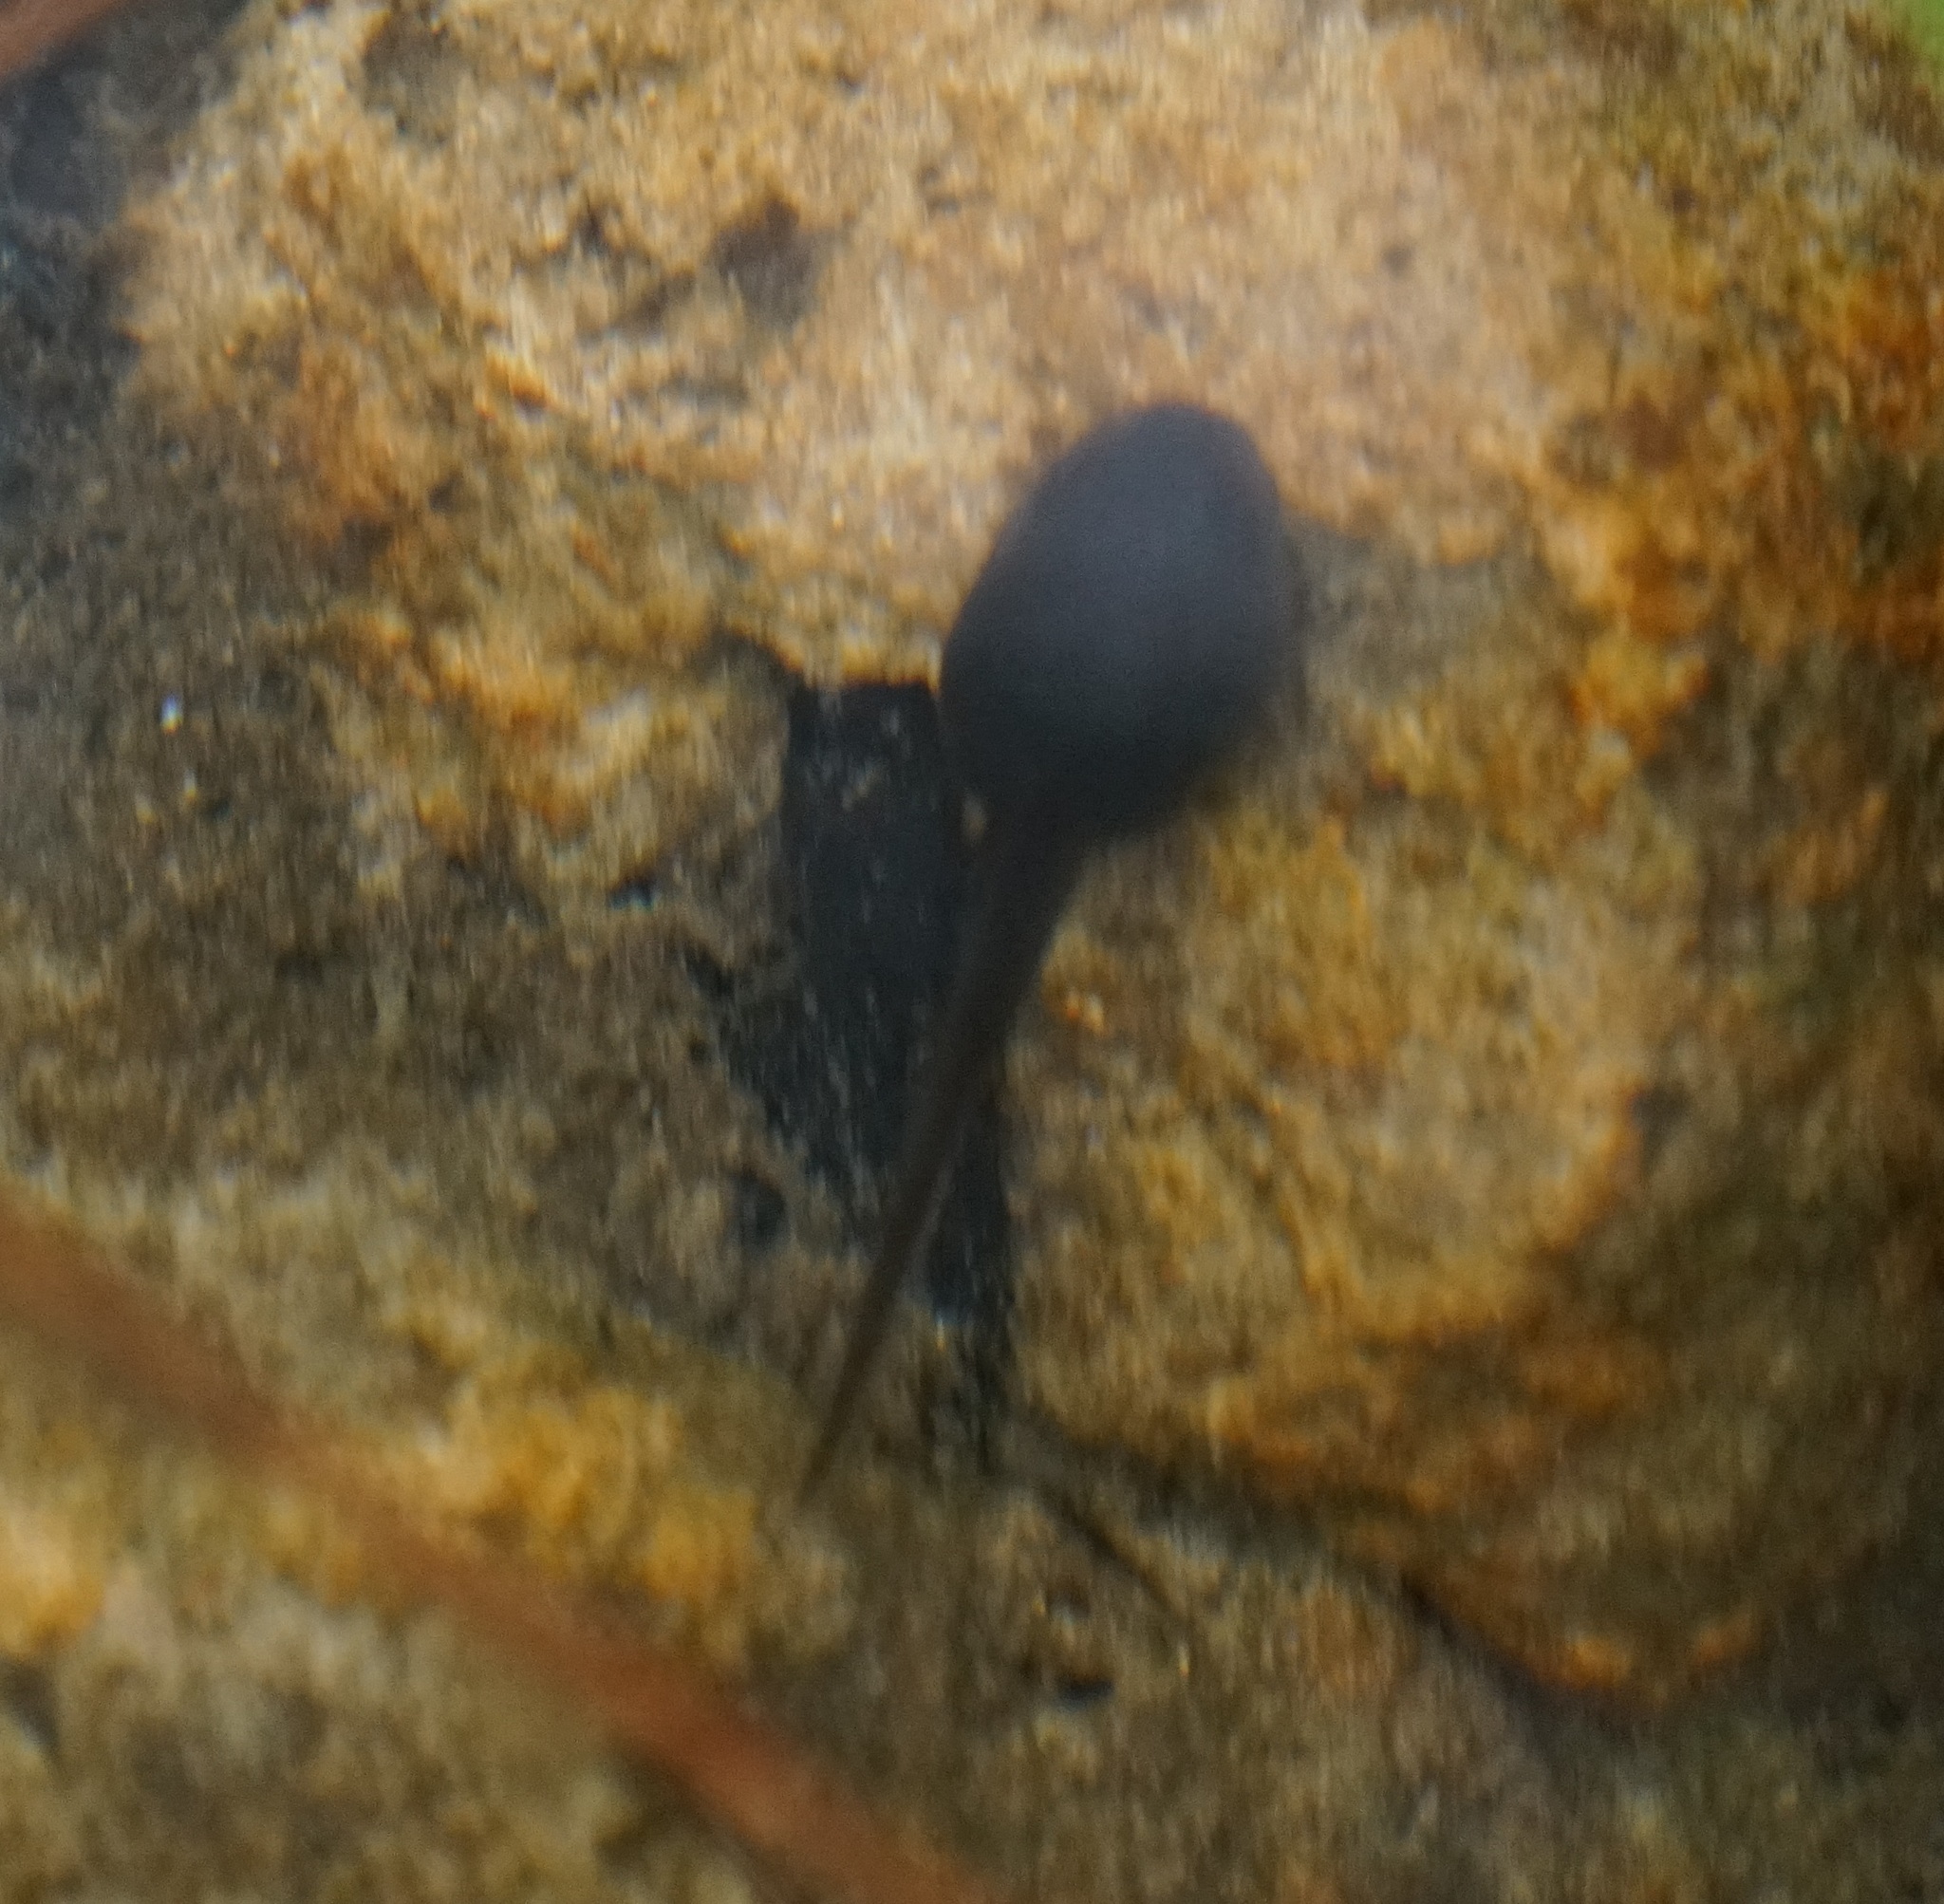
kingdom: Animalia
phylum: Chordata
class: Amphibia
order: Anura
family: Limnodynastidae
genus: Heleioporus
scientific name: Heleioporus australiacus
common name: Eastern owl frog
